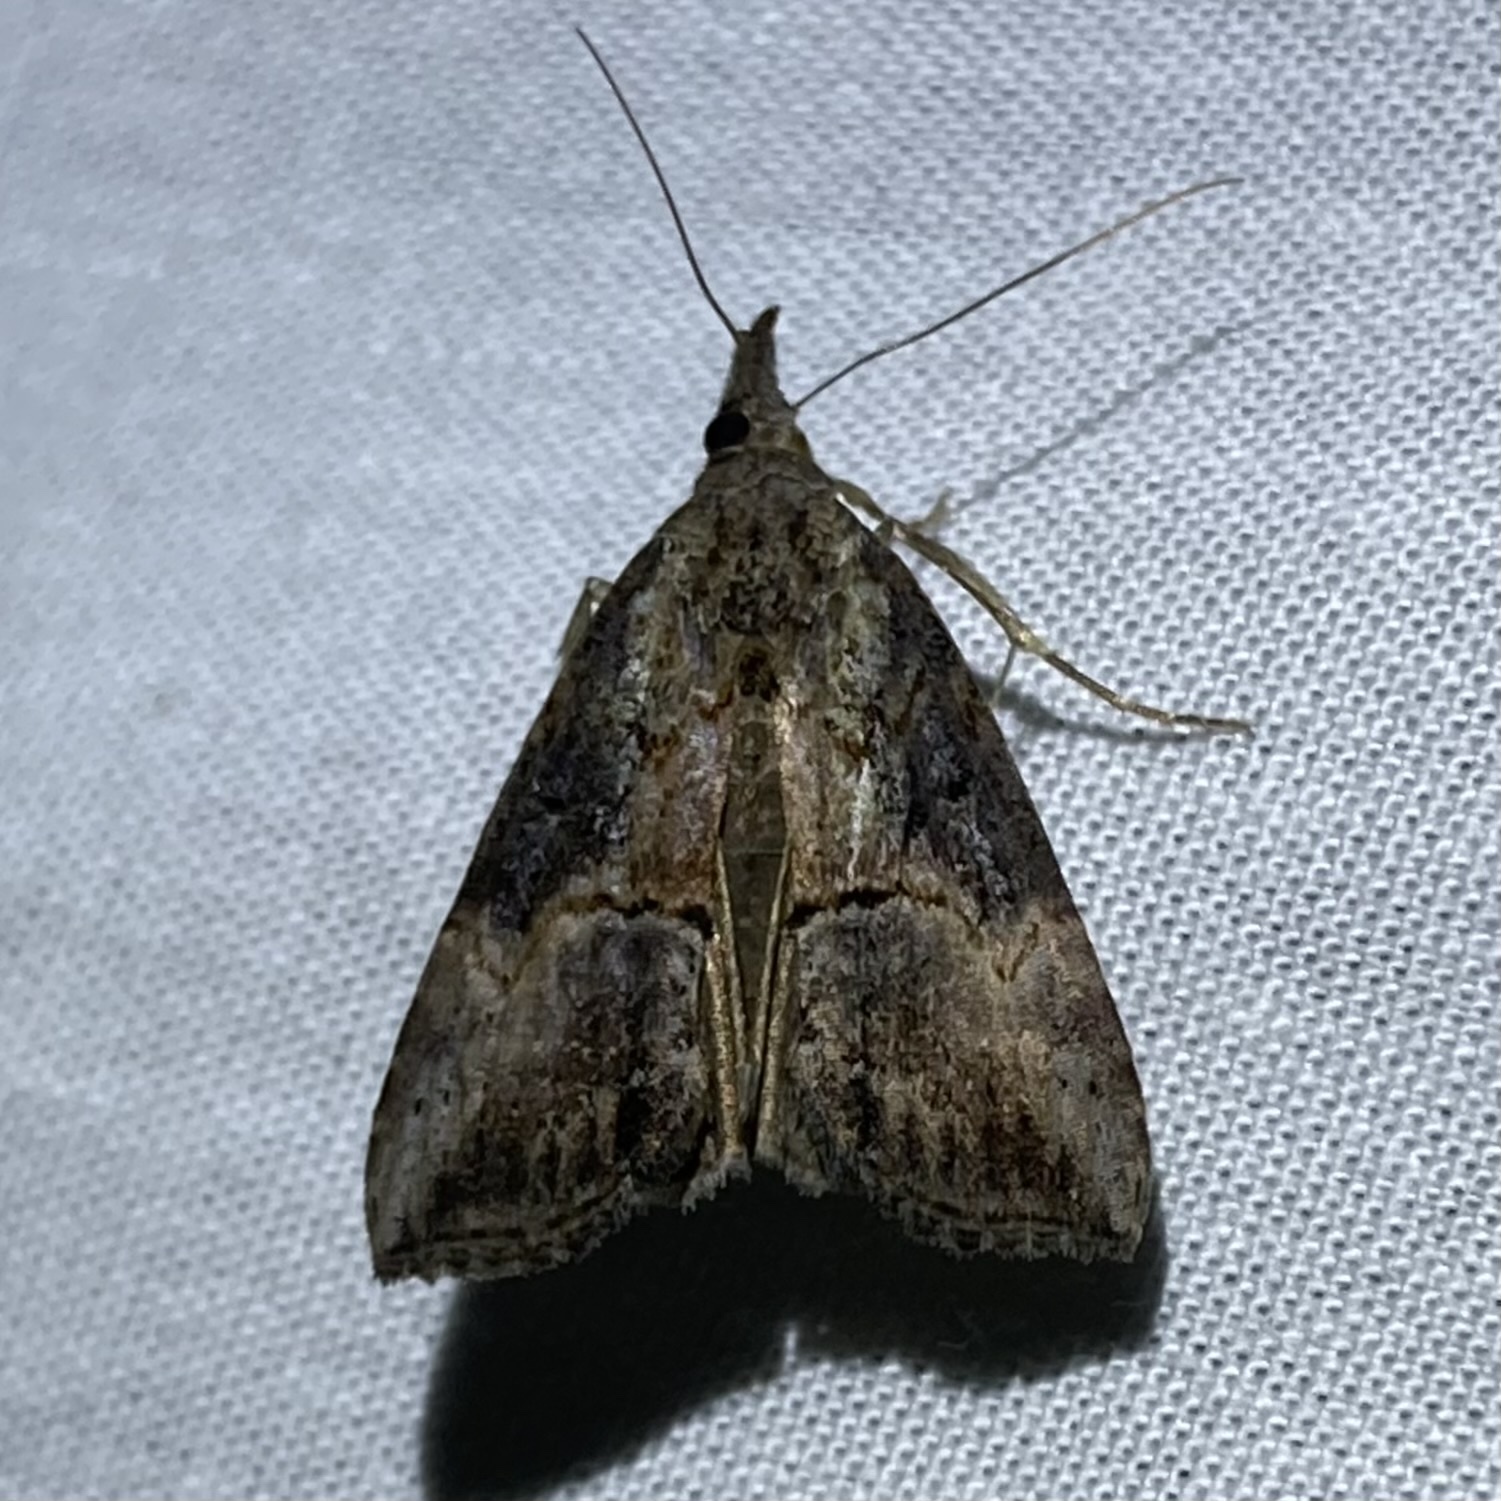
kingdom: Animalia
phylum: Arthropoda
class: Insecta
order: Lepidoptera
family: Erebidae
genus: Hypena
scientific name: Hypena scabra
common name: Green cloverworm
